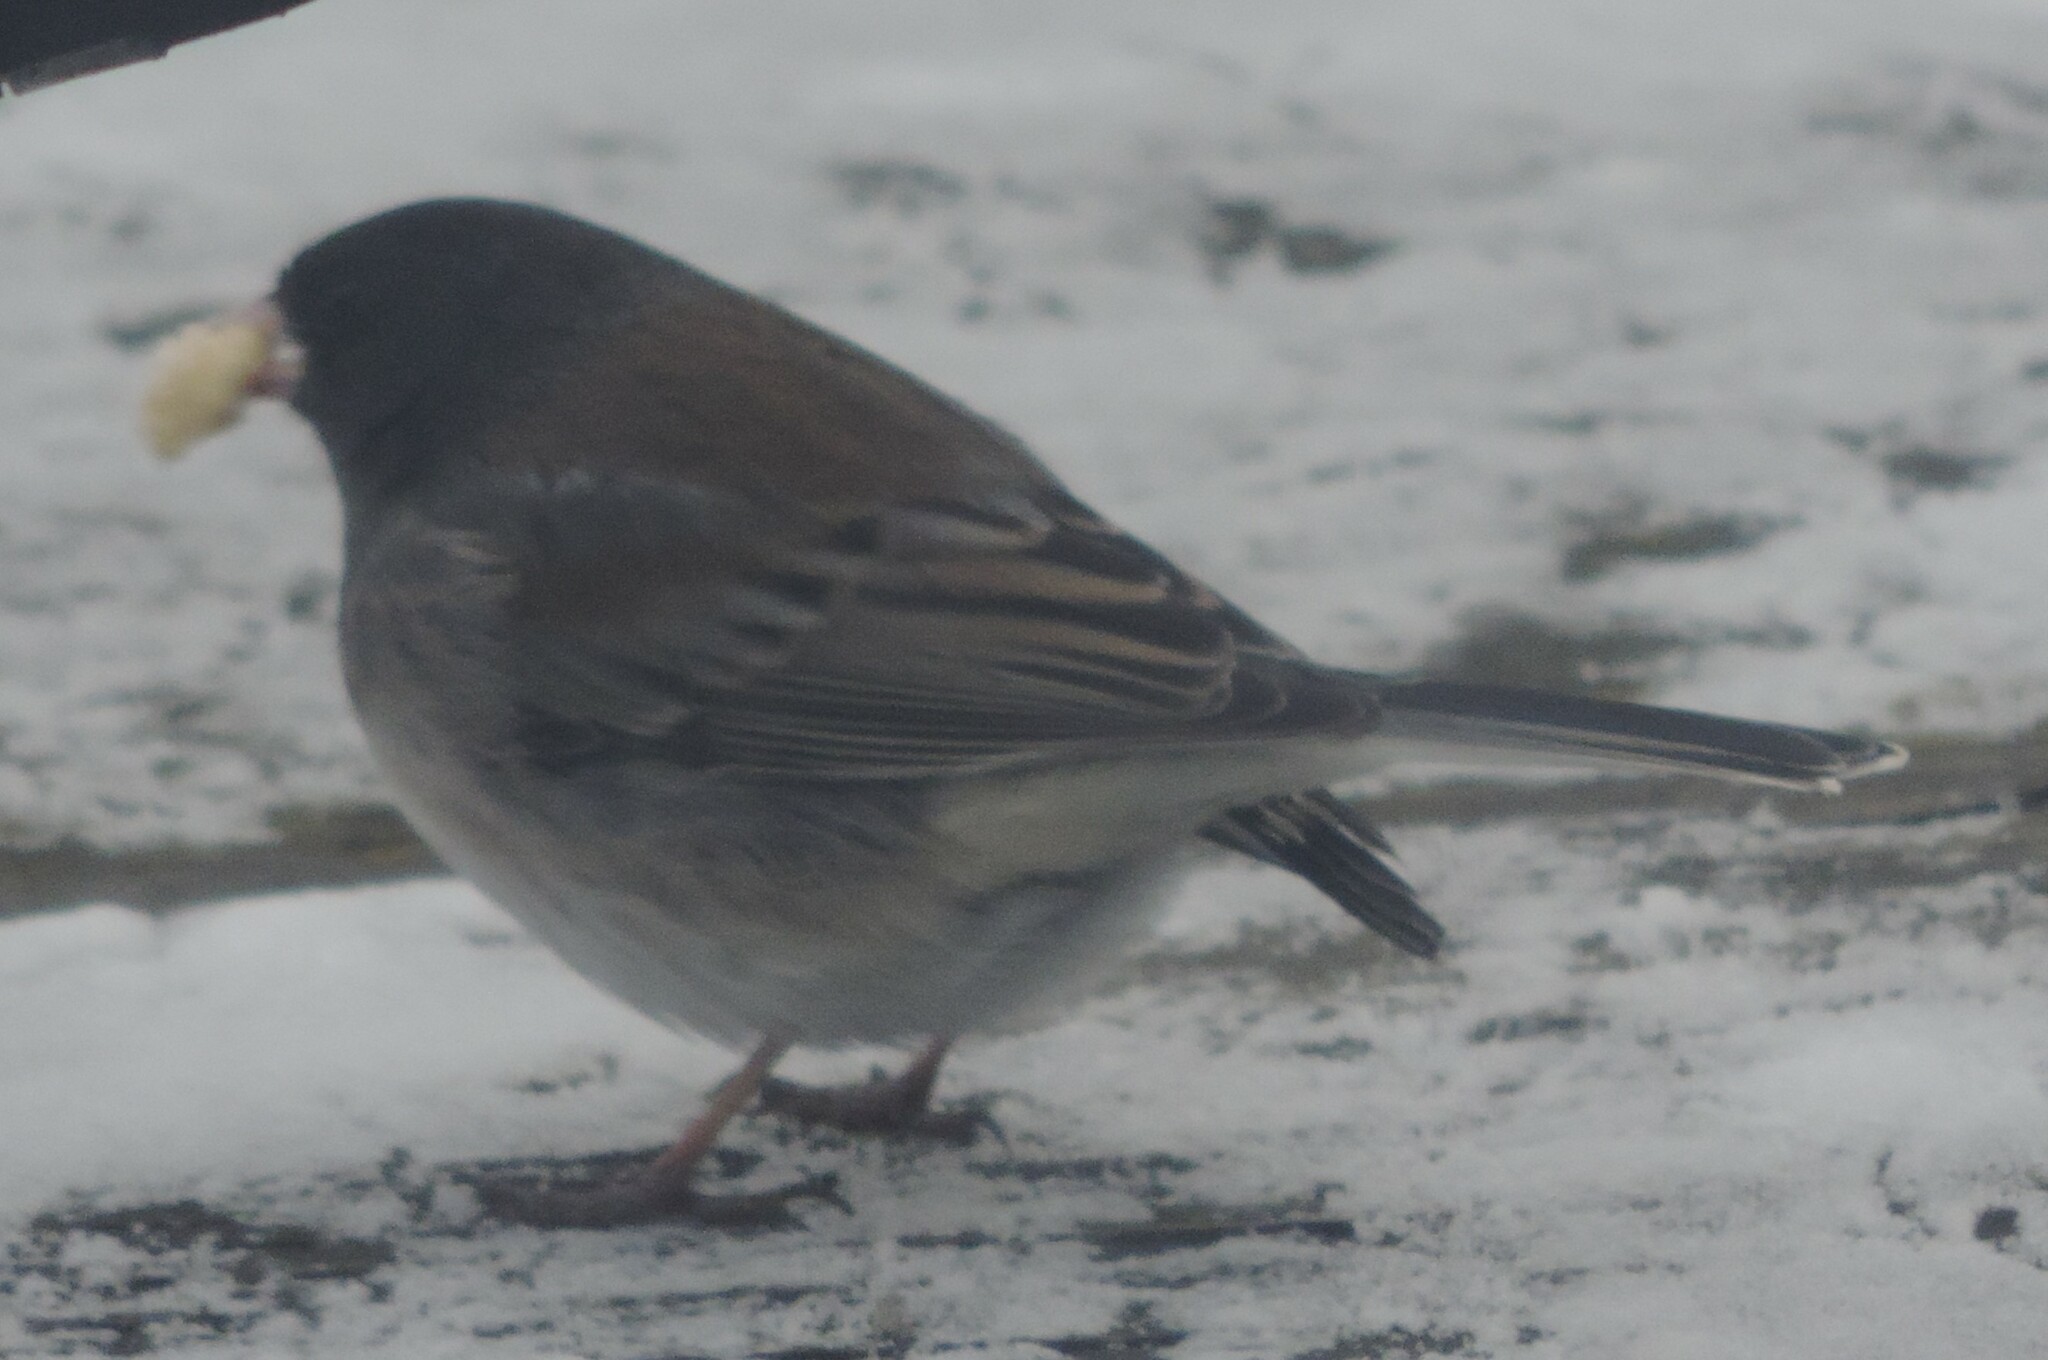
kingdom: Animalia
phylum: Chordata
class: Aves
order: Passeriformes
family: Passerellidae
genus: Junco
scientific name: Junco hyemalis
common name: Dark-eyed junco
